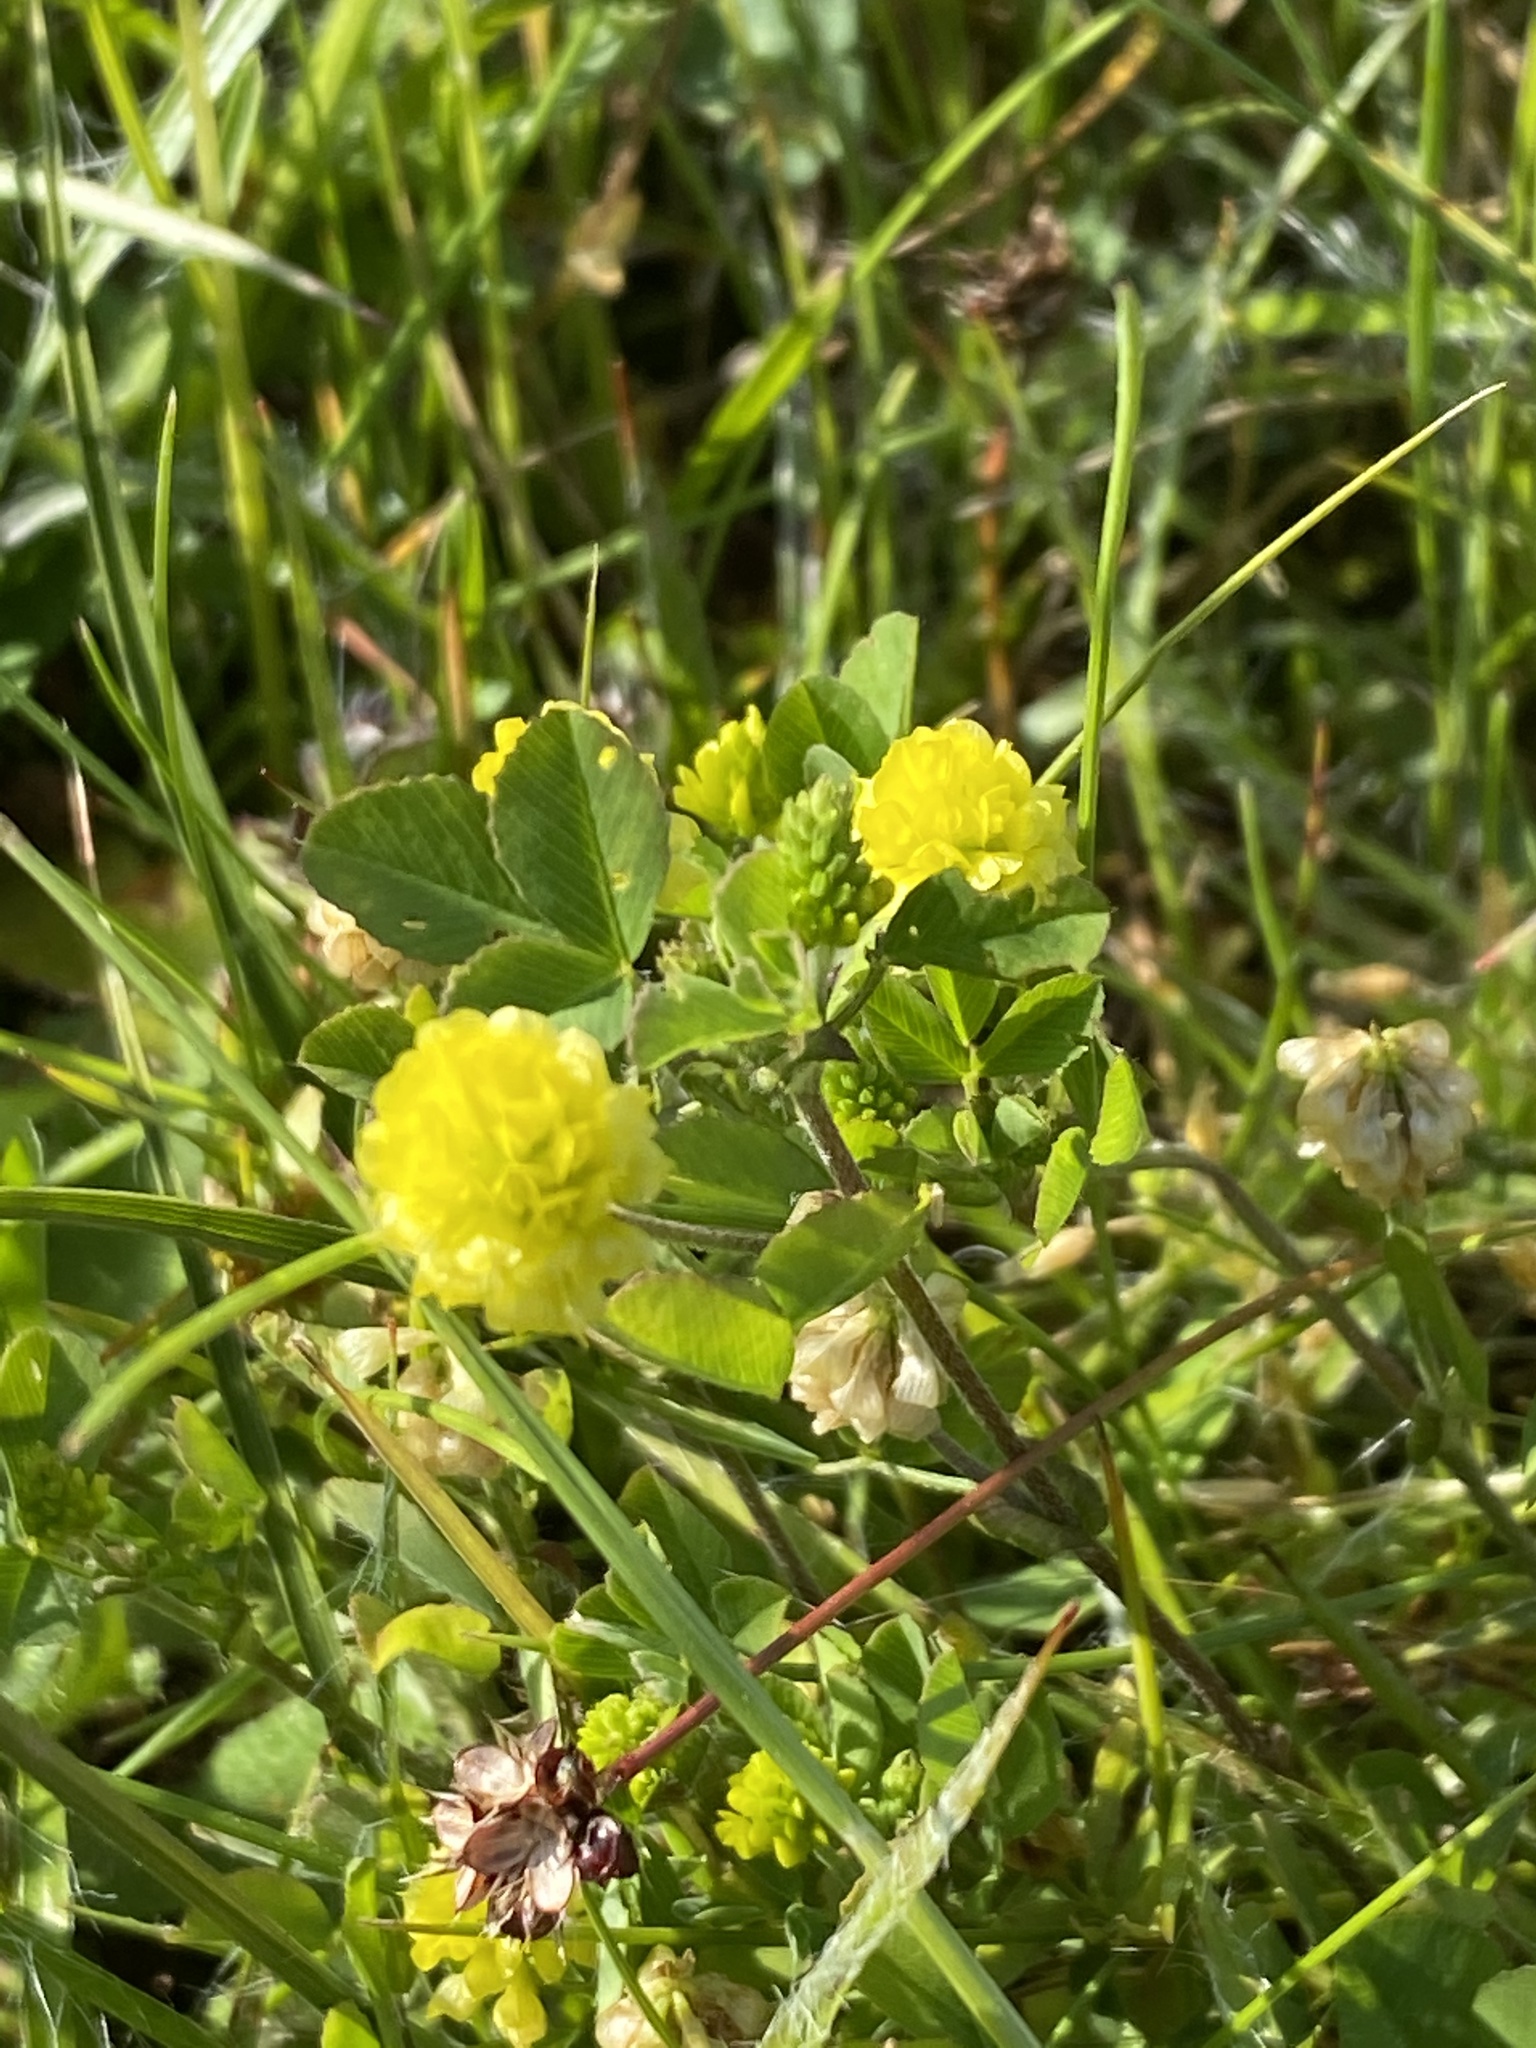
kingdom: Plantae
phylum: Tracheophyta
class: Magnoliopsida
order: Fabales
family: Fabaceae
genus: Trifolium
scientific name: Trifolium campestre
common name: Field clover
